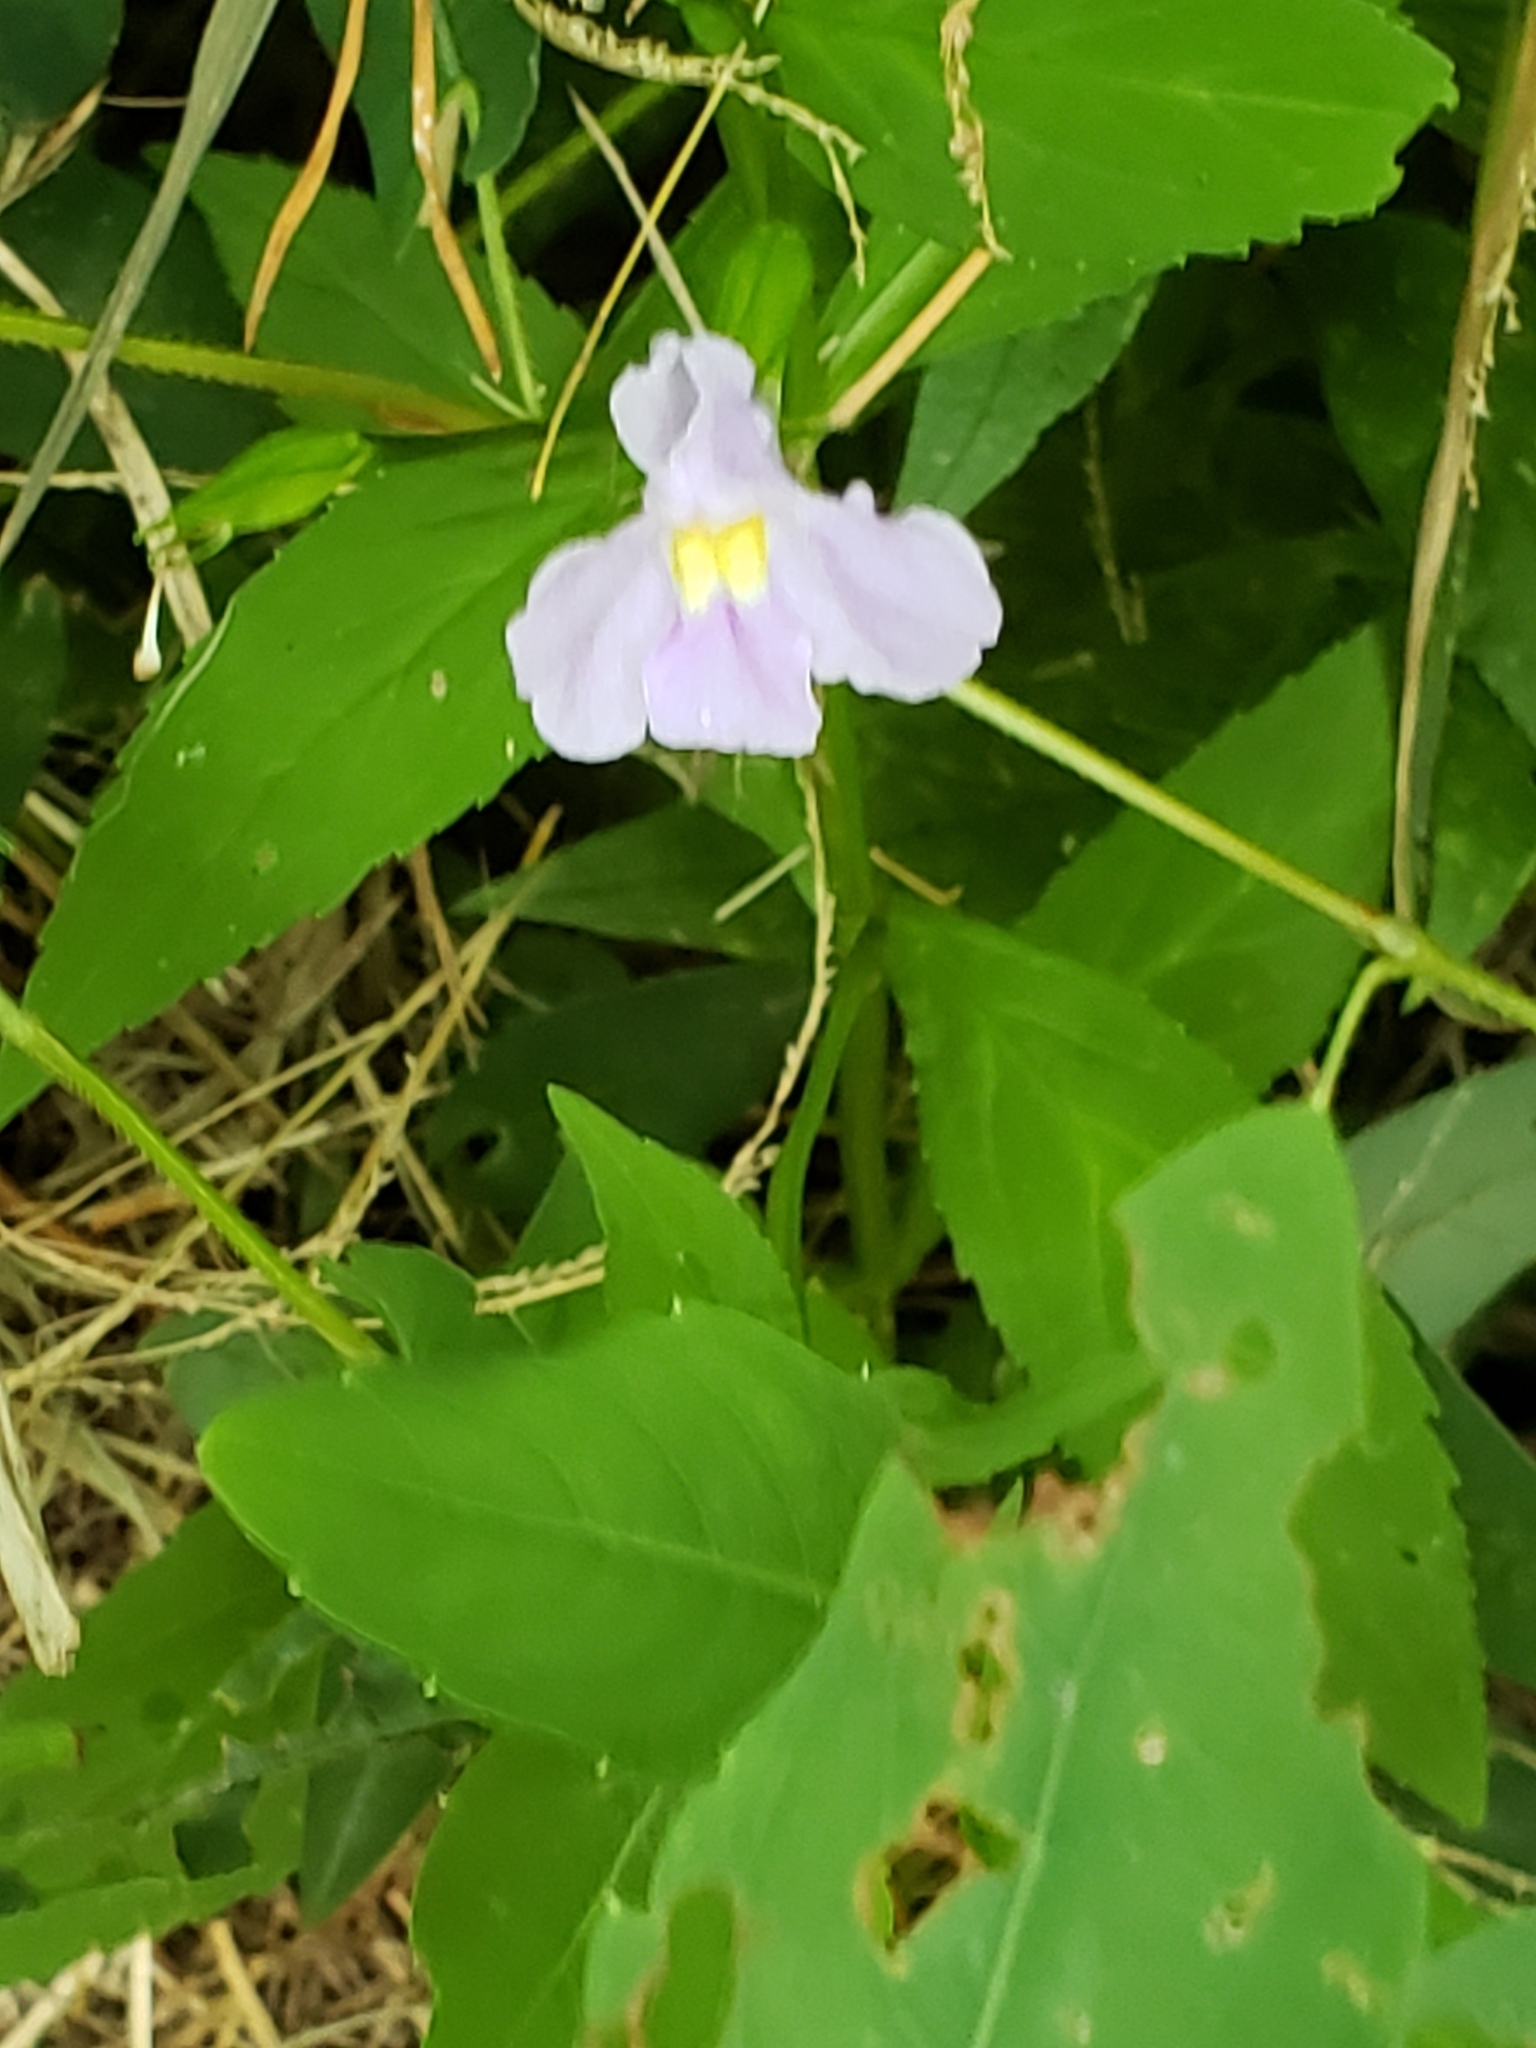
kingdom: Plantae
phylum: Tracheophyta
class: Magnoliopsida
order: Lamiales
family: Phrymaceae
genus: Mimulus
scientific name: Mimulus ringens
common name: Allegheny monkeyflower
